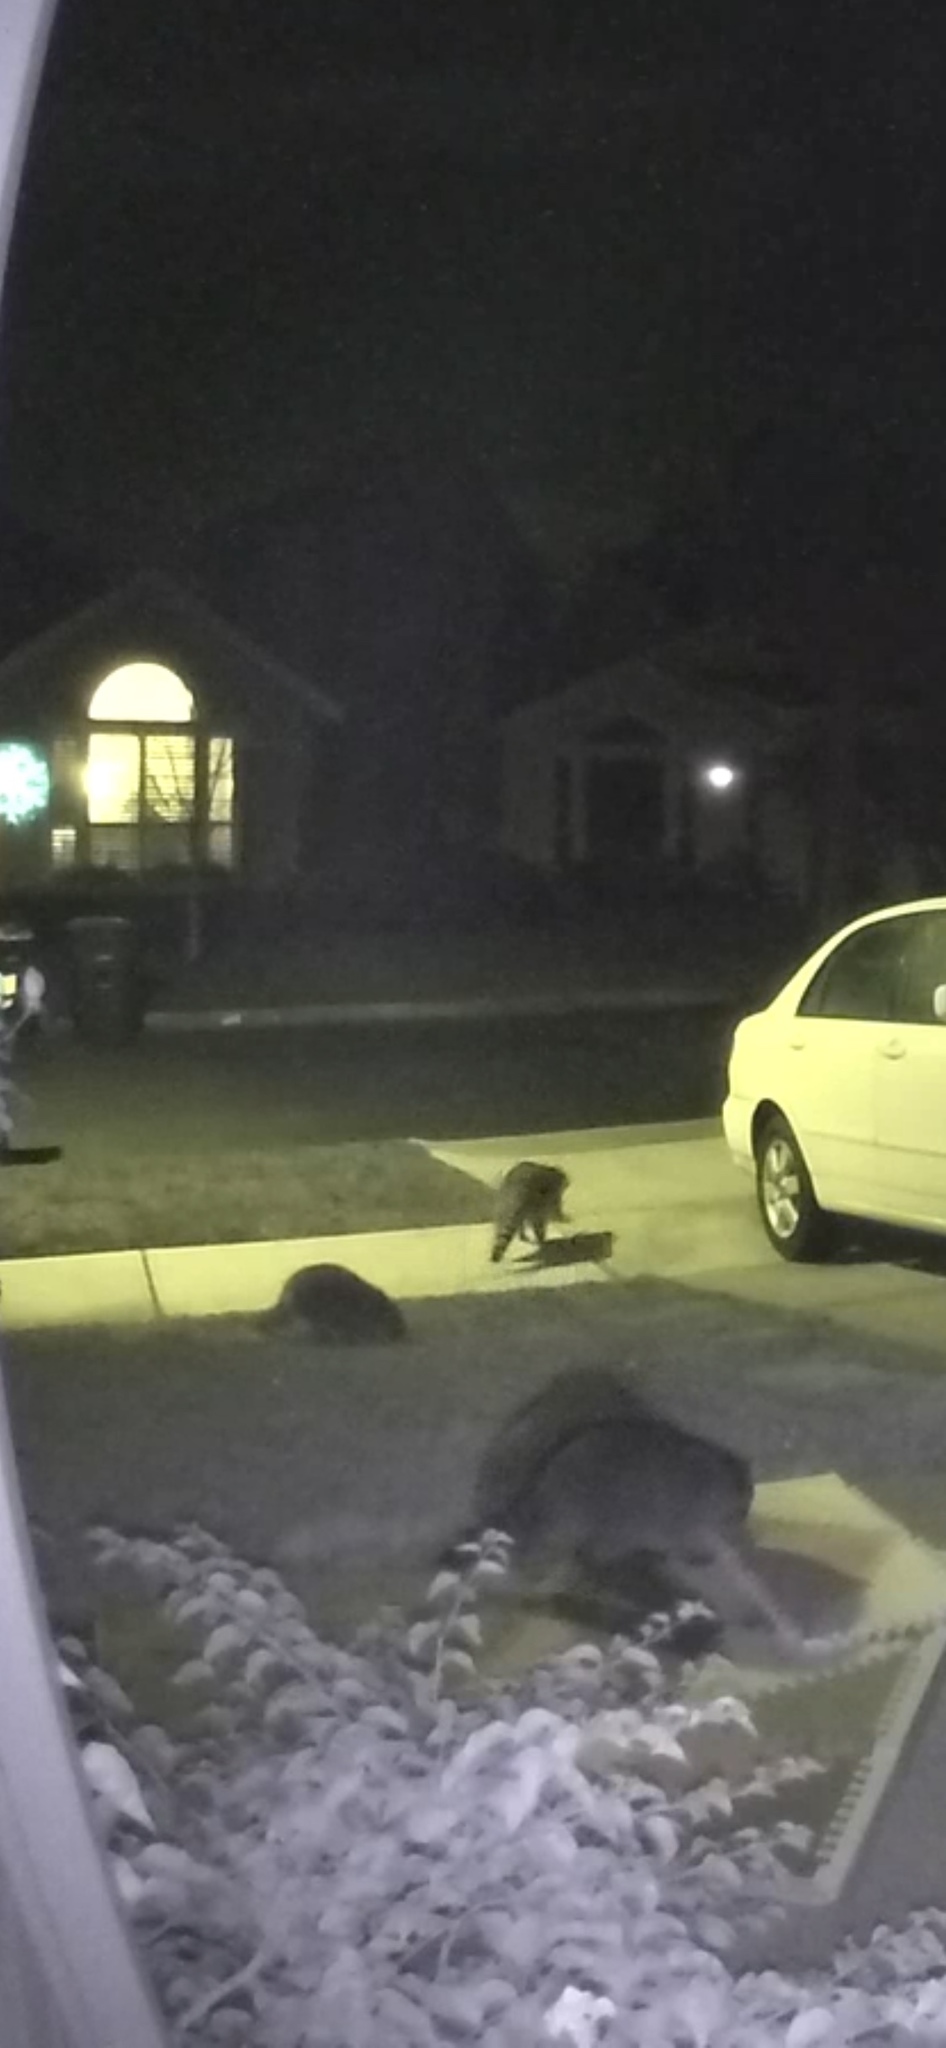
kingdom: Animalia
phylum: Chordata
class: Mammalia
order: Carnivora
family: Procyonidae
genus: Procyon
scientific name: Procyon lotor
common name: Raccoon
